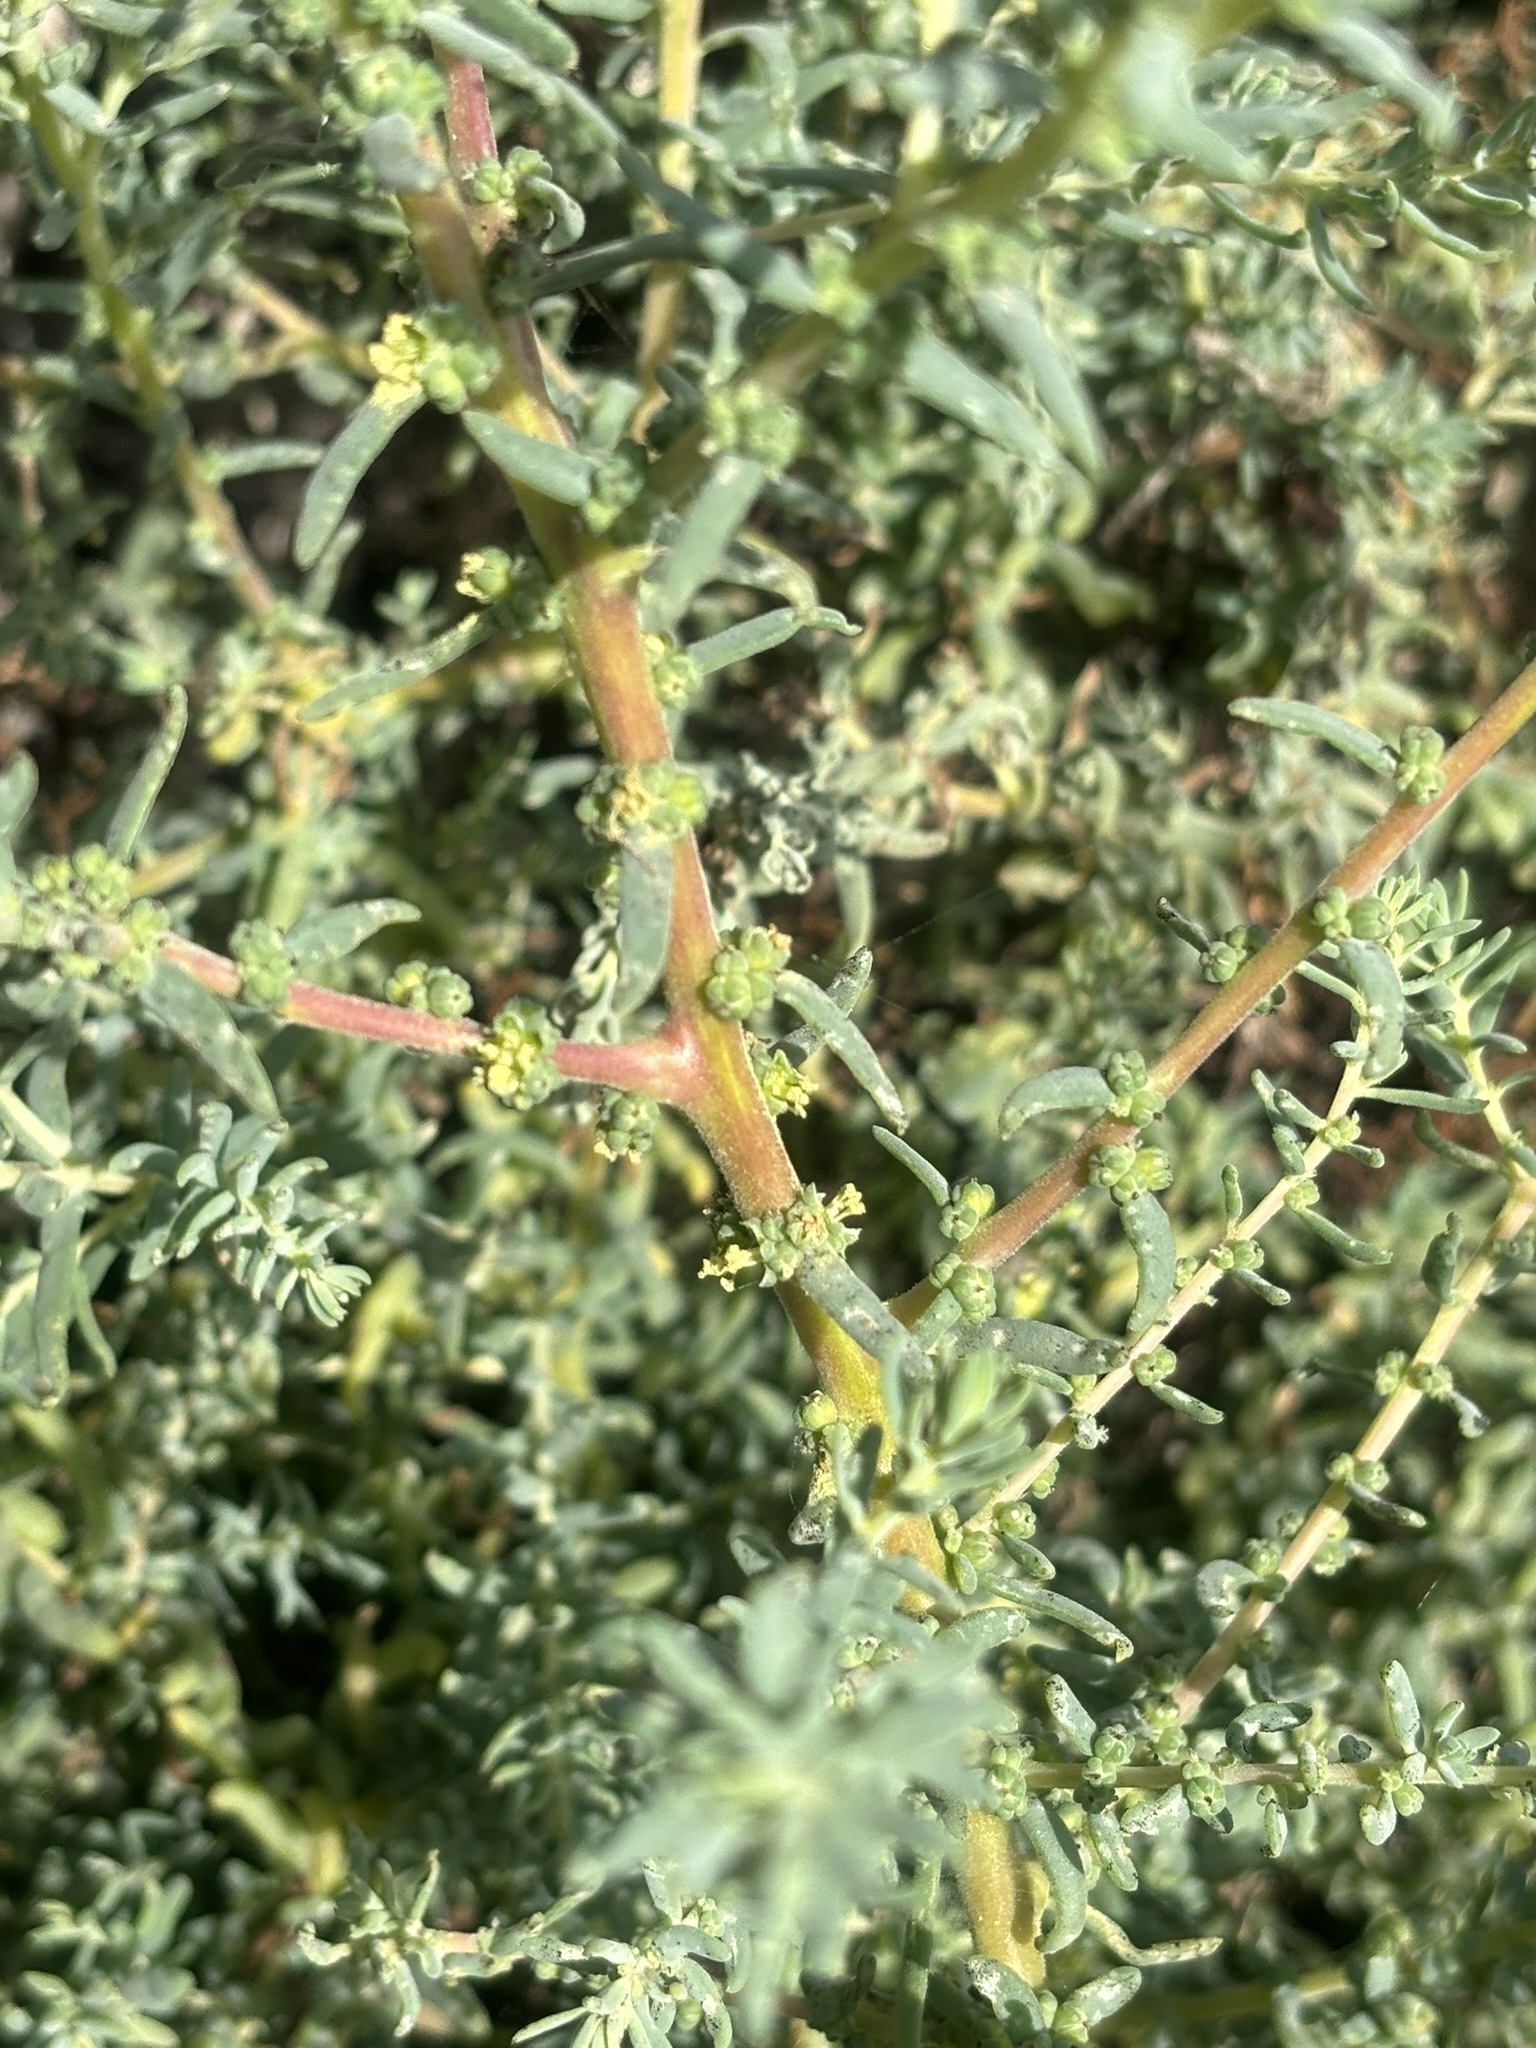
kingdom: Plantae
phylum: Tracheophyta
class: Magnoliopsida
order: Caryophyllales
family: Amaranthaceae
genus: Suaeda
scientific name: Suaeda nigra
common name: Bush seepweed
